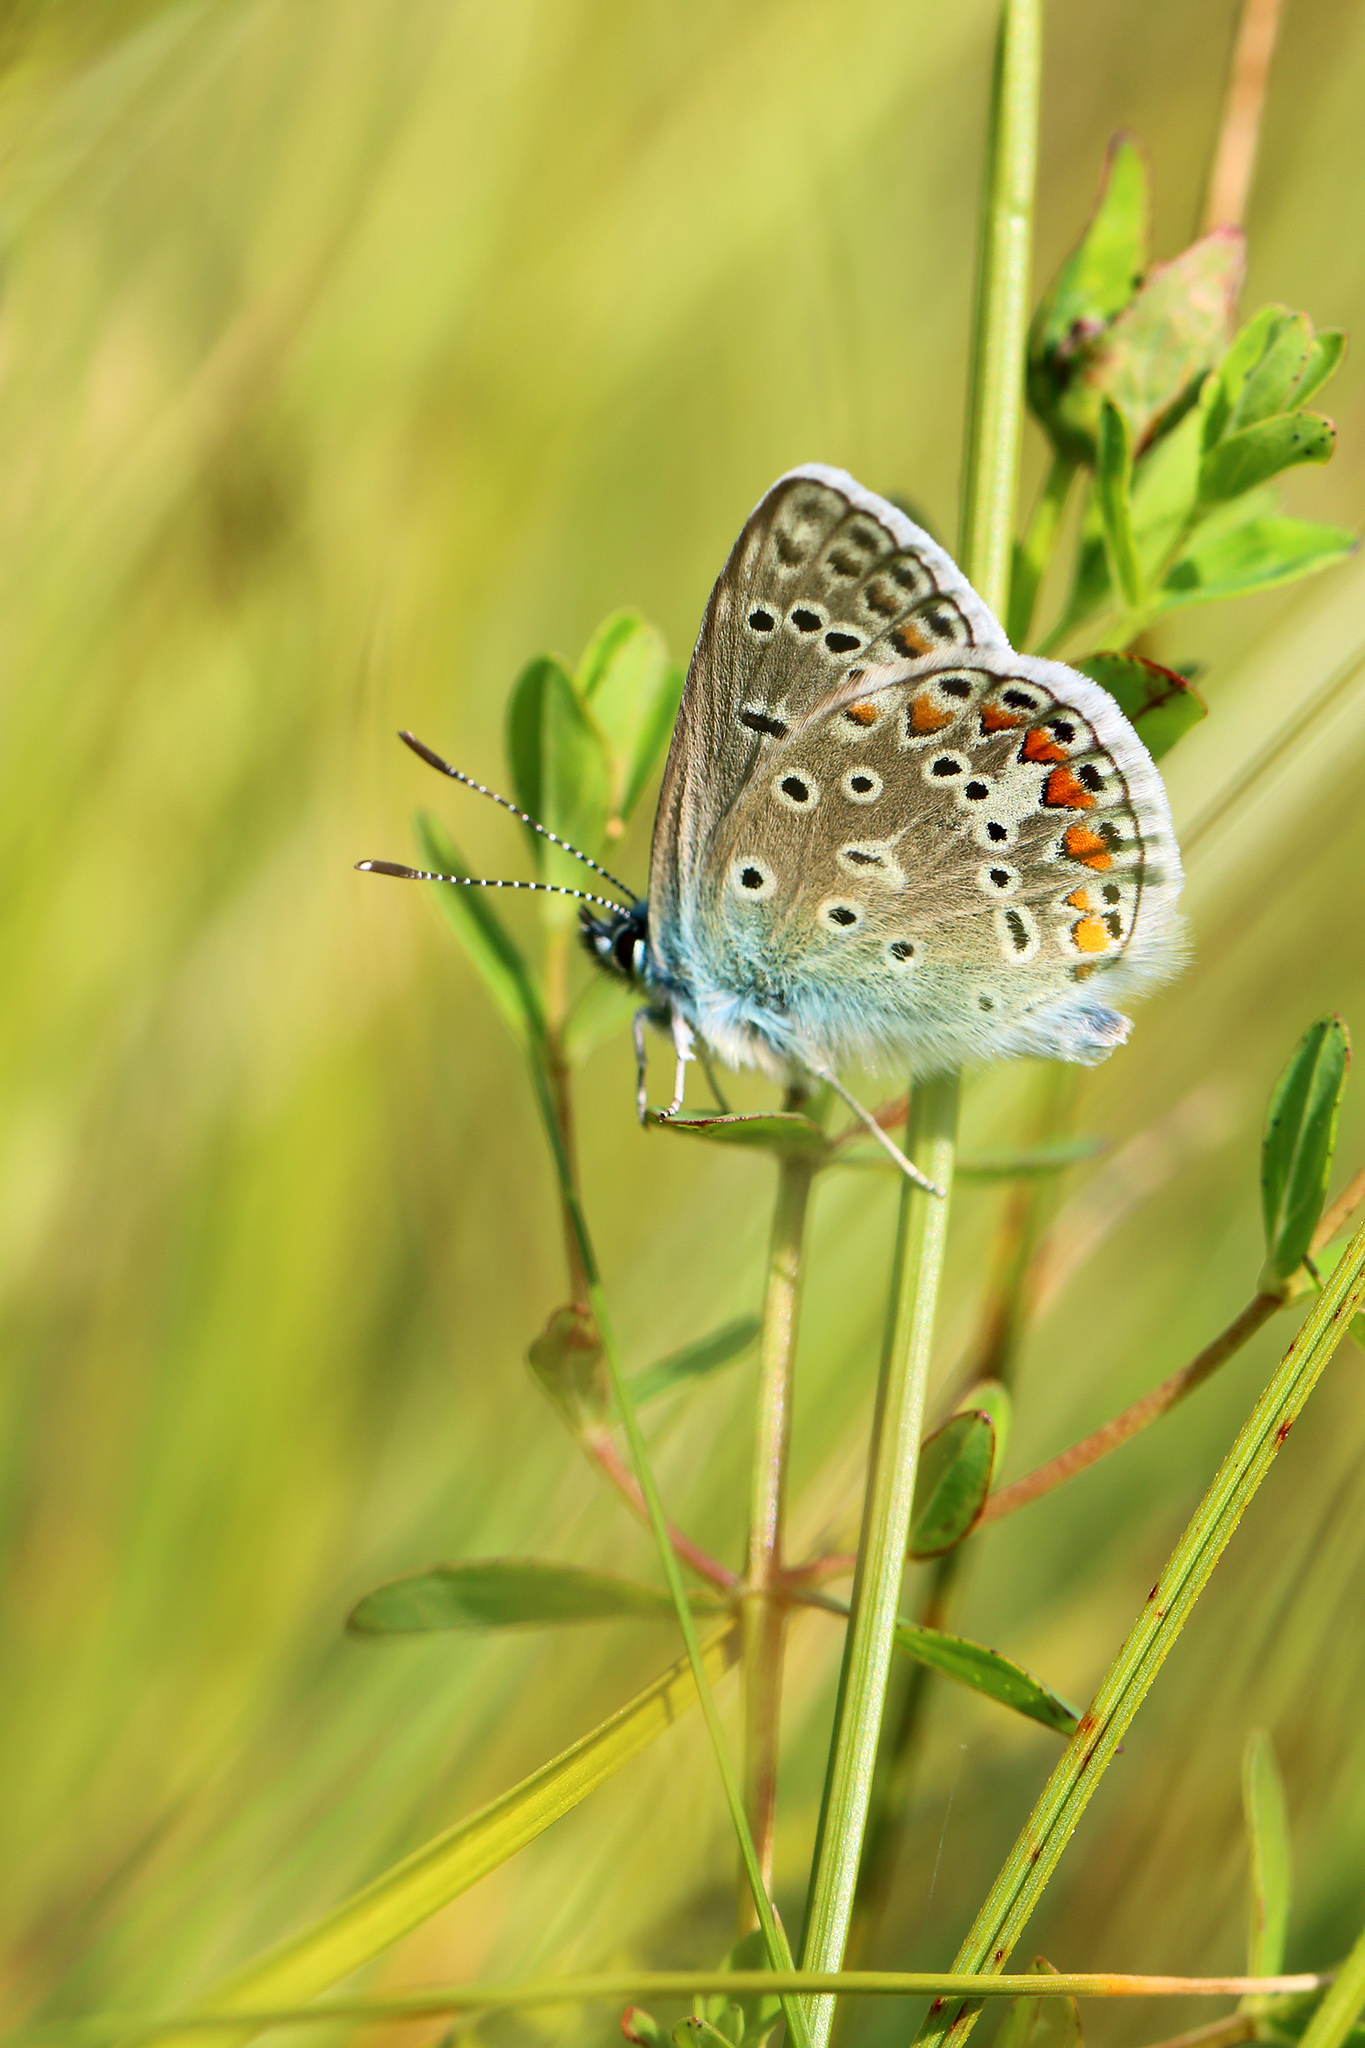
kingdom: Animalia
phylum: Arthropoda
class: Insecta
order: Lepidoptera
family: Lycaenidae
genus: Polyommatus
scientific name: Polyommatus icarus
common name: Common blue
